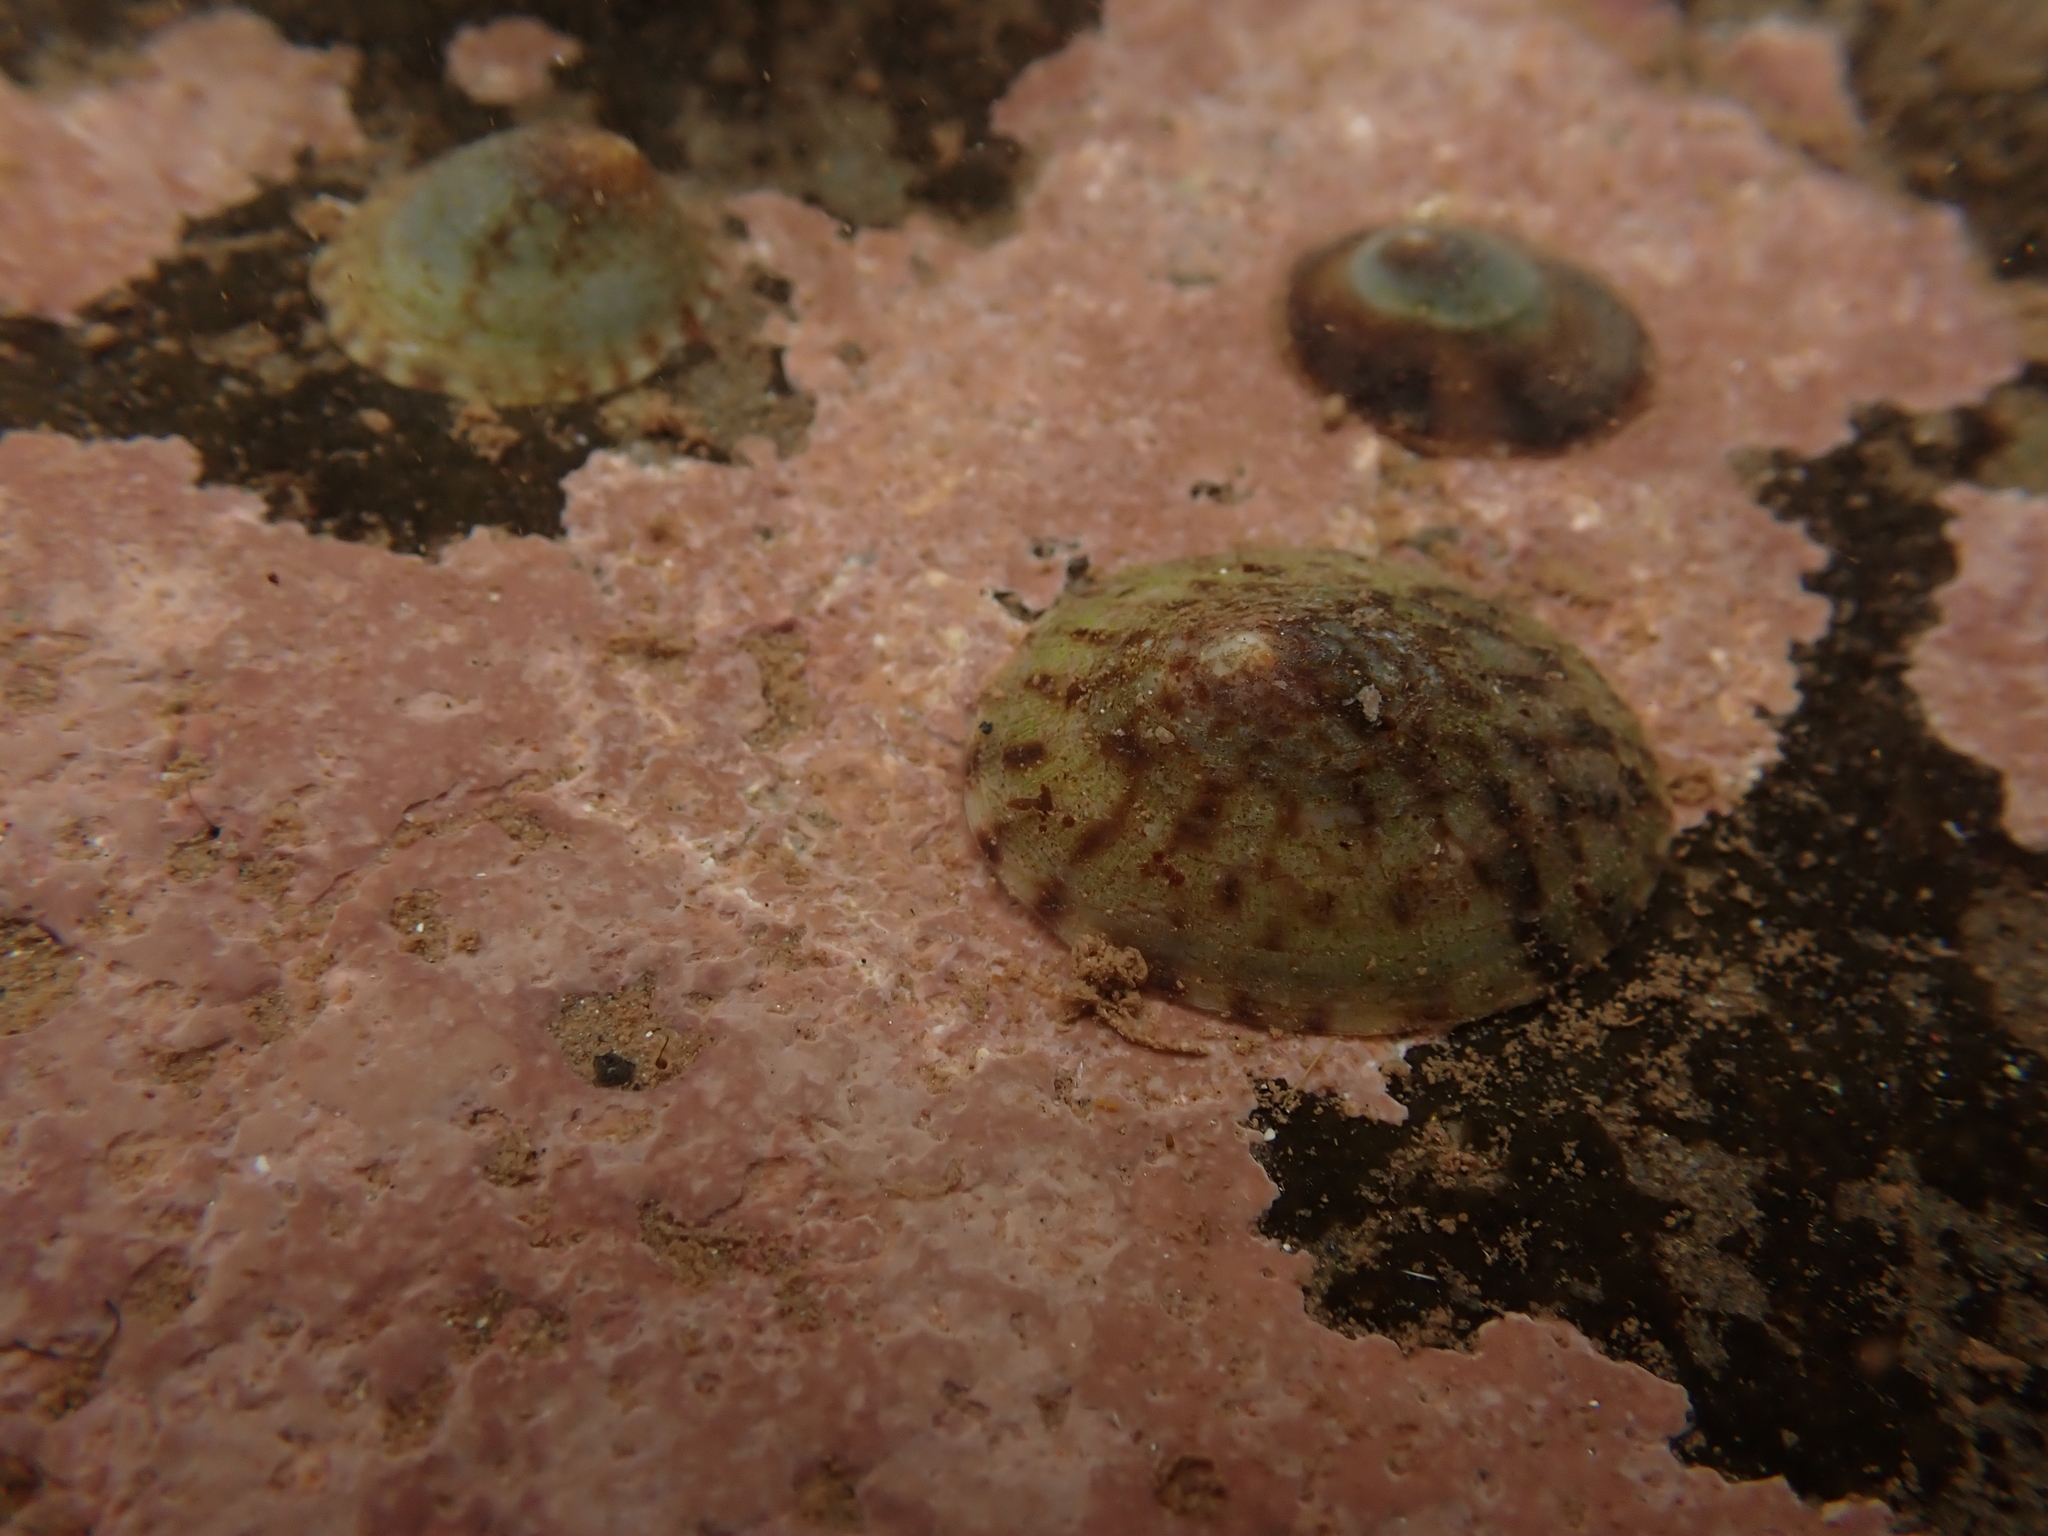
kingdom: Animalia
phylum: Mollusca
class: Gastropoda
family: Lottiidae
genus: Testudinalia
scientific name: Testudinalia testudinalis
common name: Common tortoiseshell limpet
